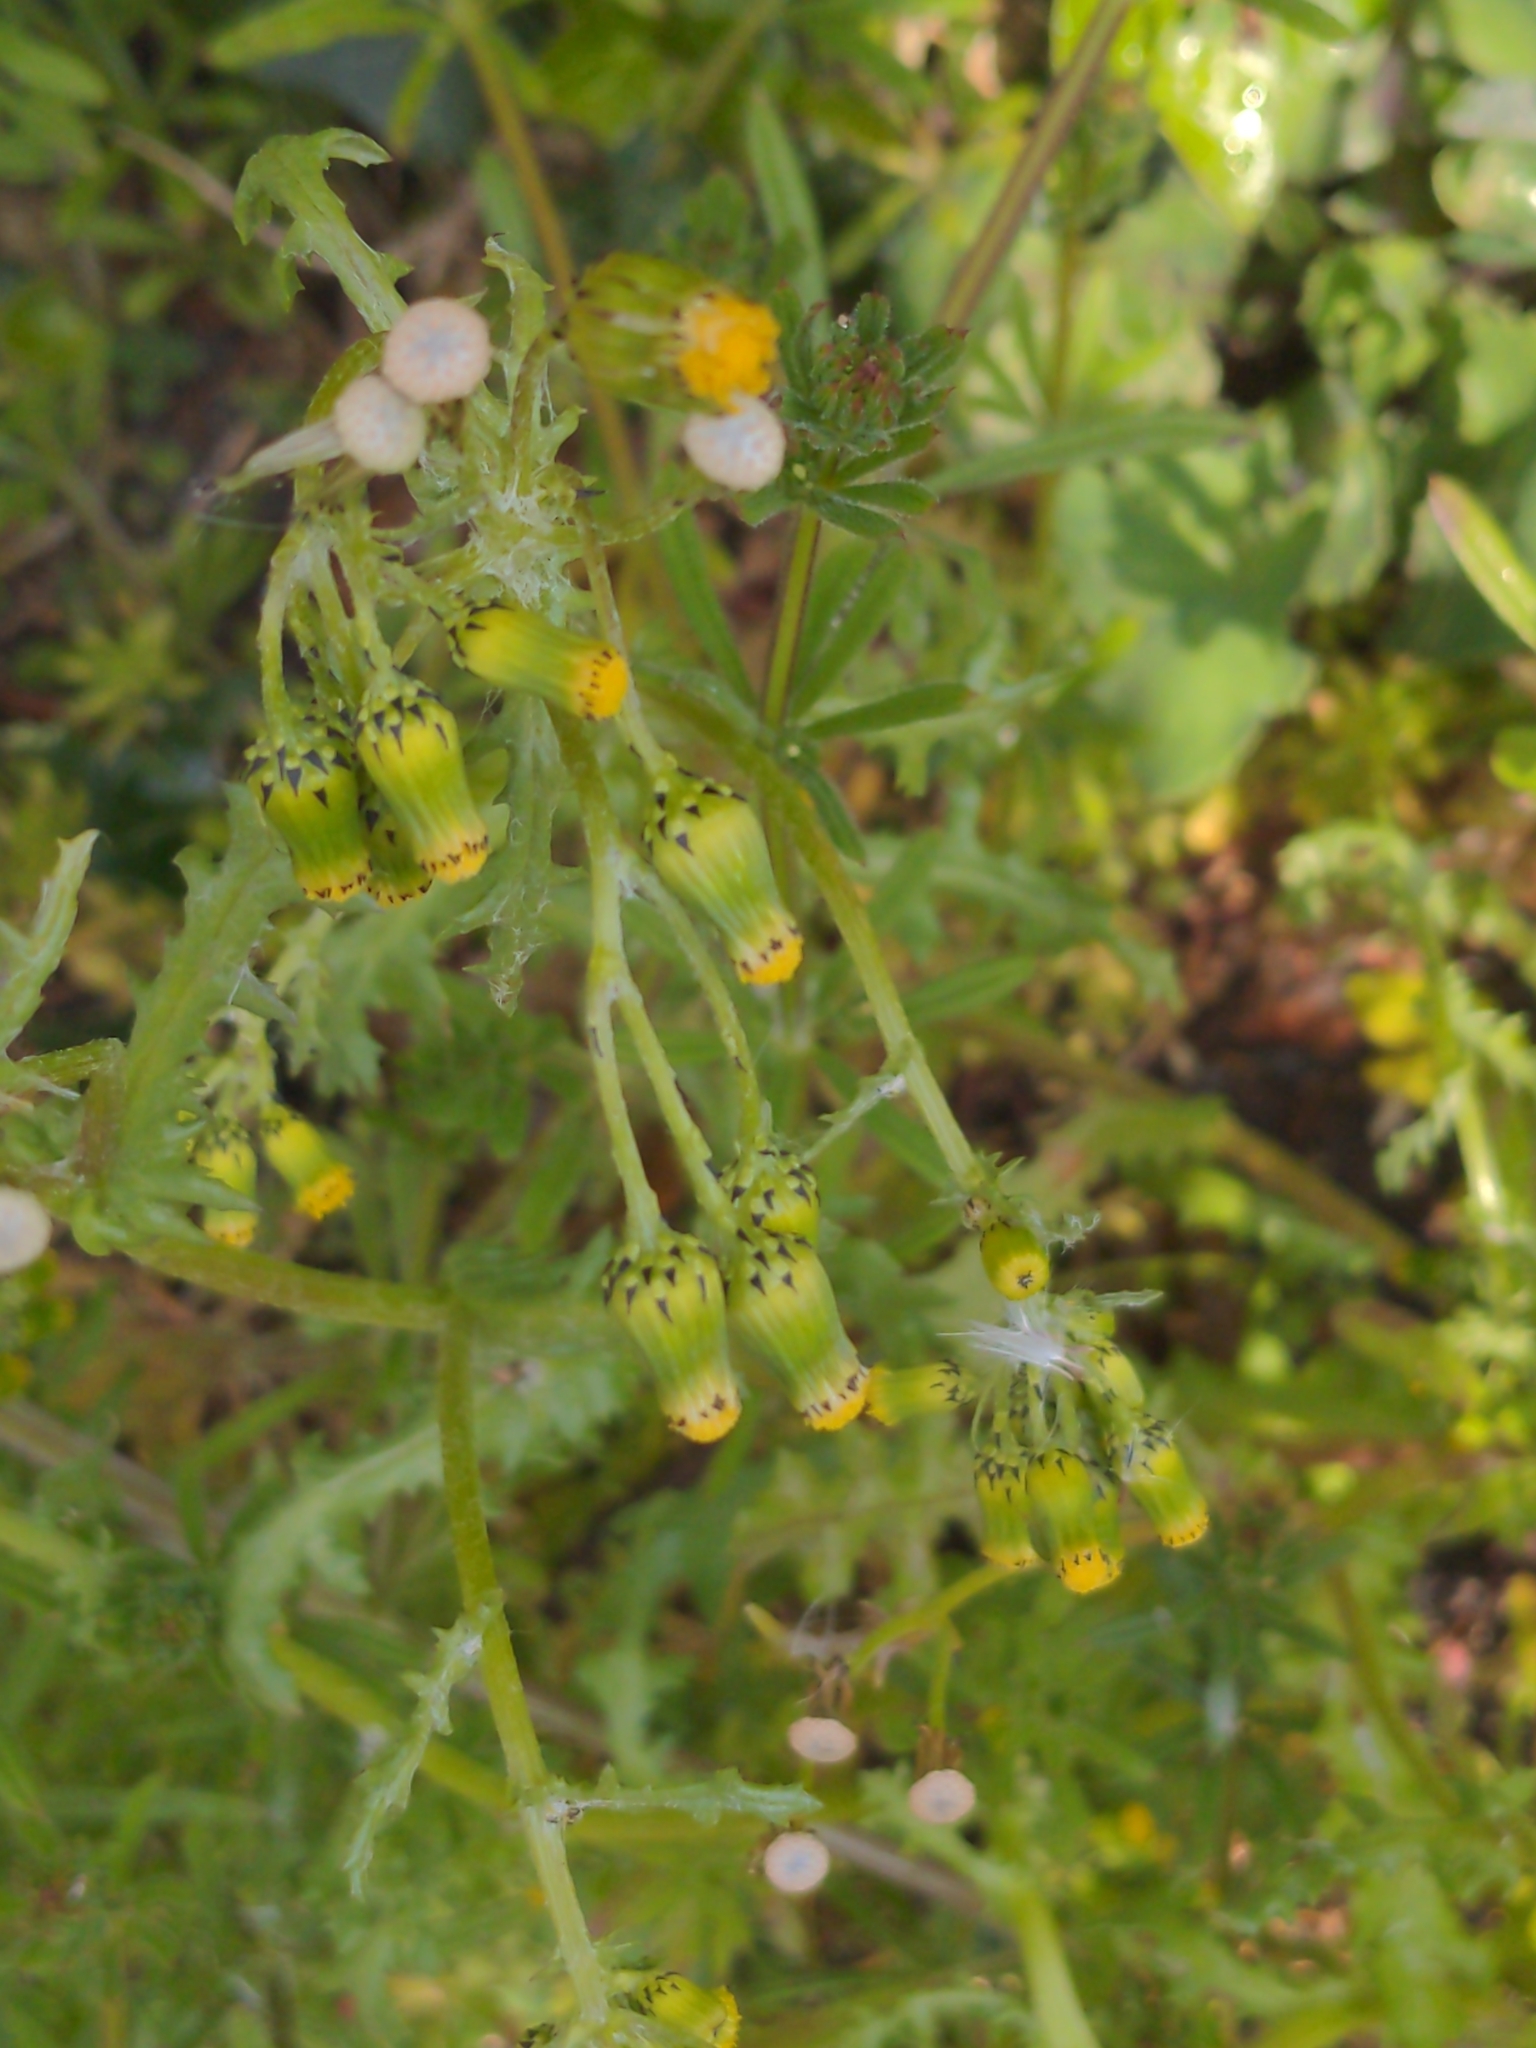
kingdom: Plantae
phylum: Tracheophyta
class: Magnoliopsida
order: Asterales
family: Asteraceae
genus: Senecio
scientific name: Senecio vulgaris
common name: Old-man-in-the-spring
